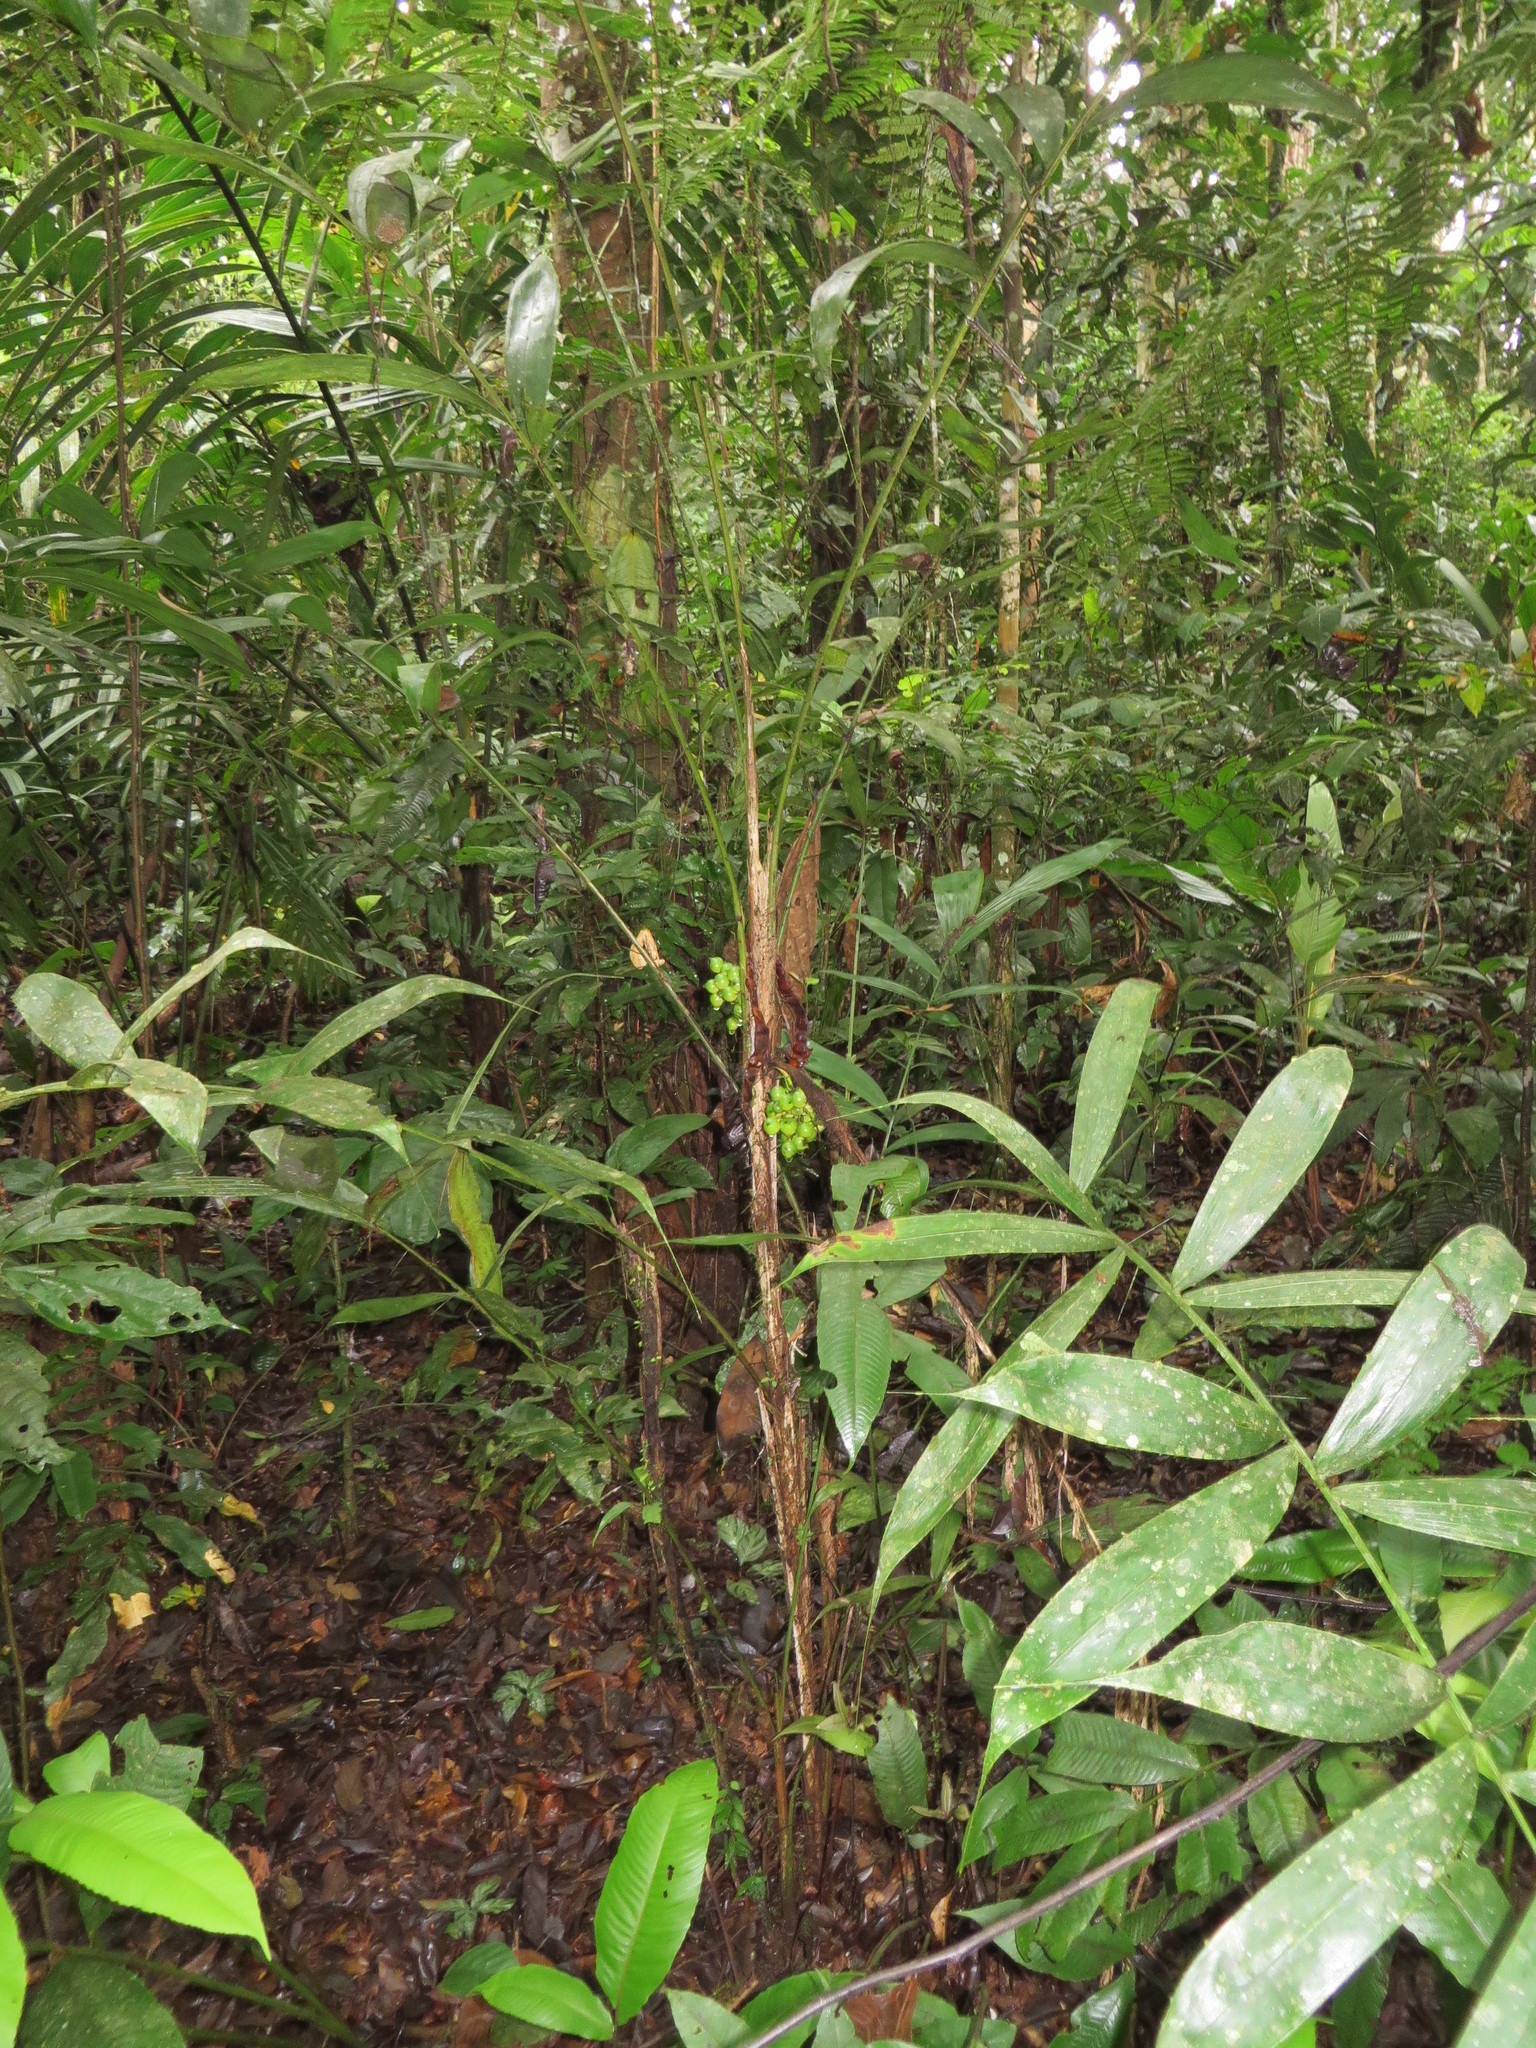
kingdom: Plantae
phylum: Tracheophyta
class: Liliopsida
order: Arecales
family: Arecaceae
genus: Bactris
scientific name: Bactris corossilla
